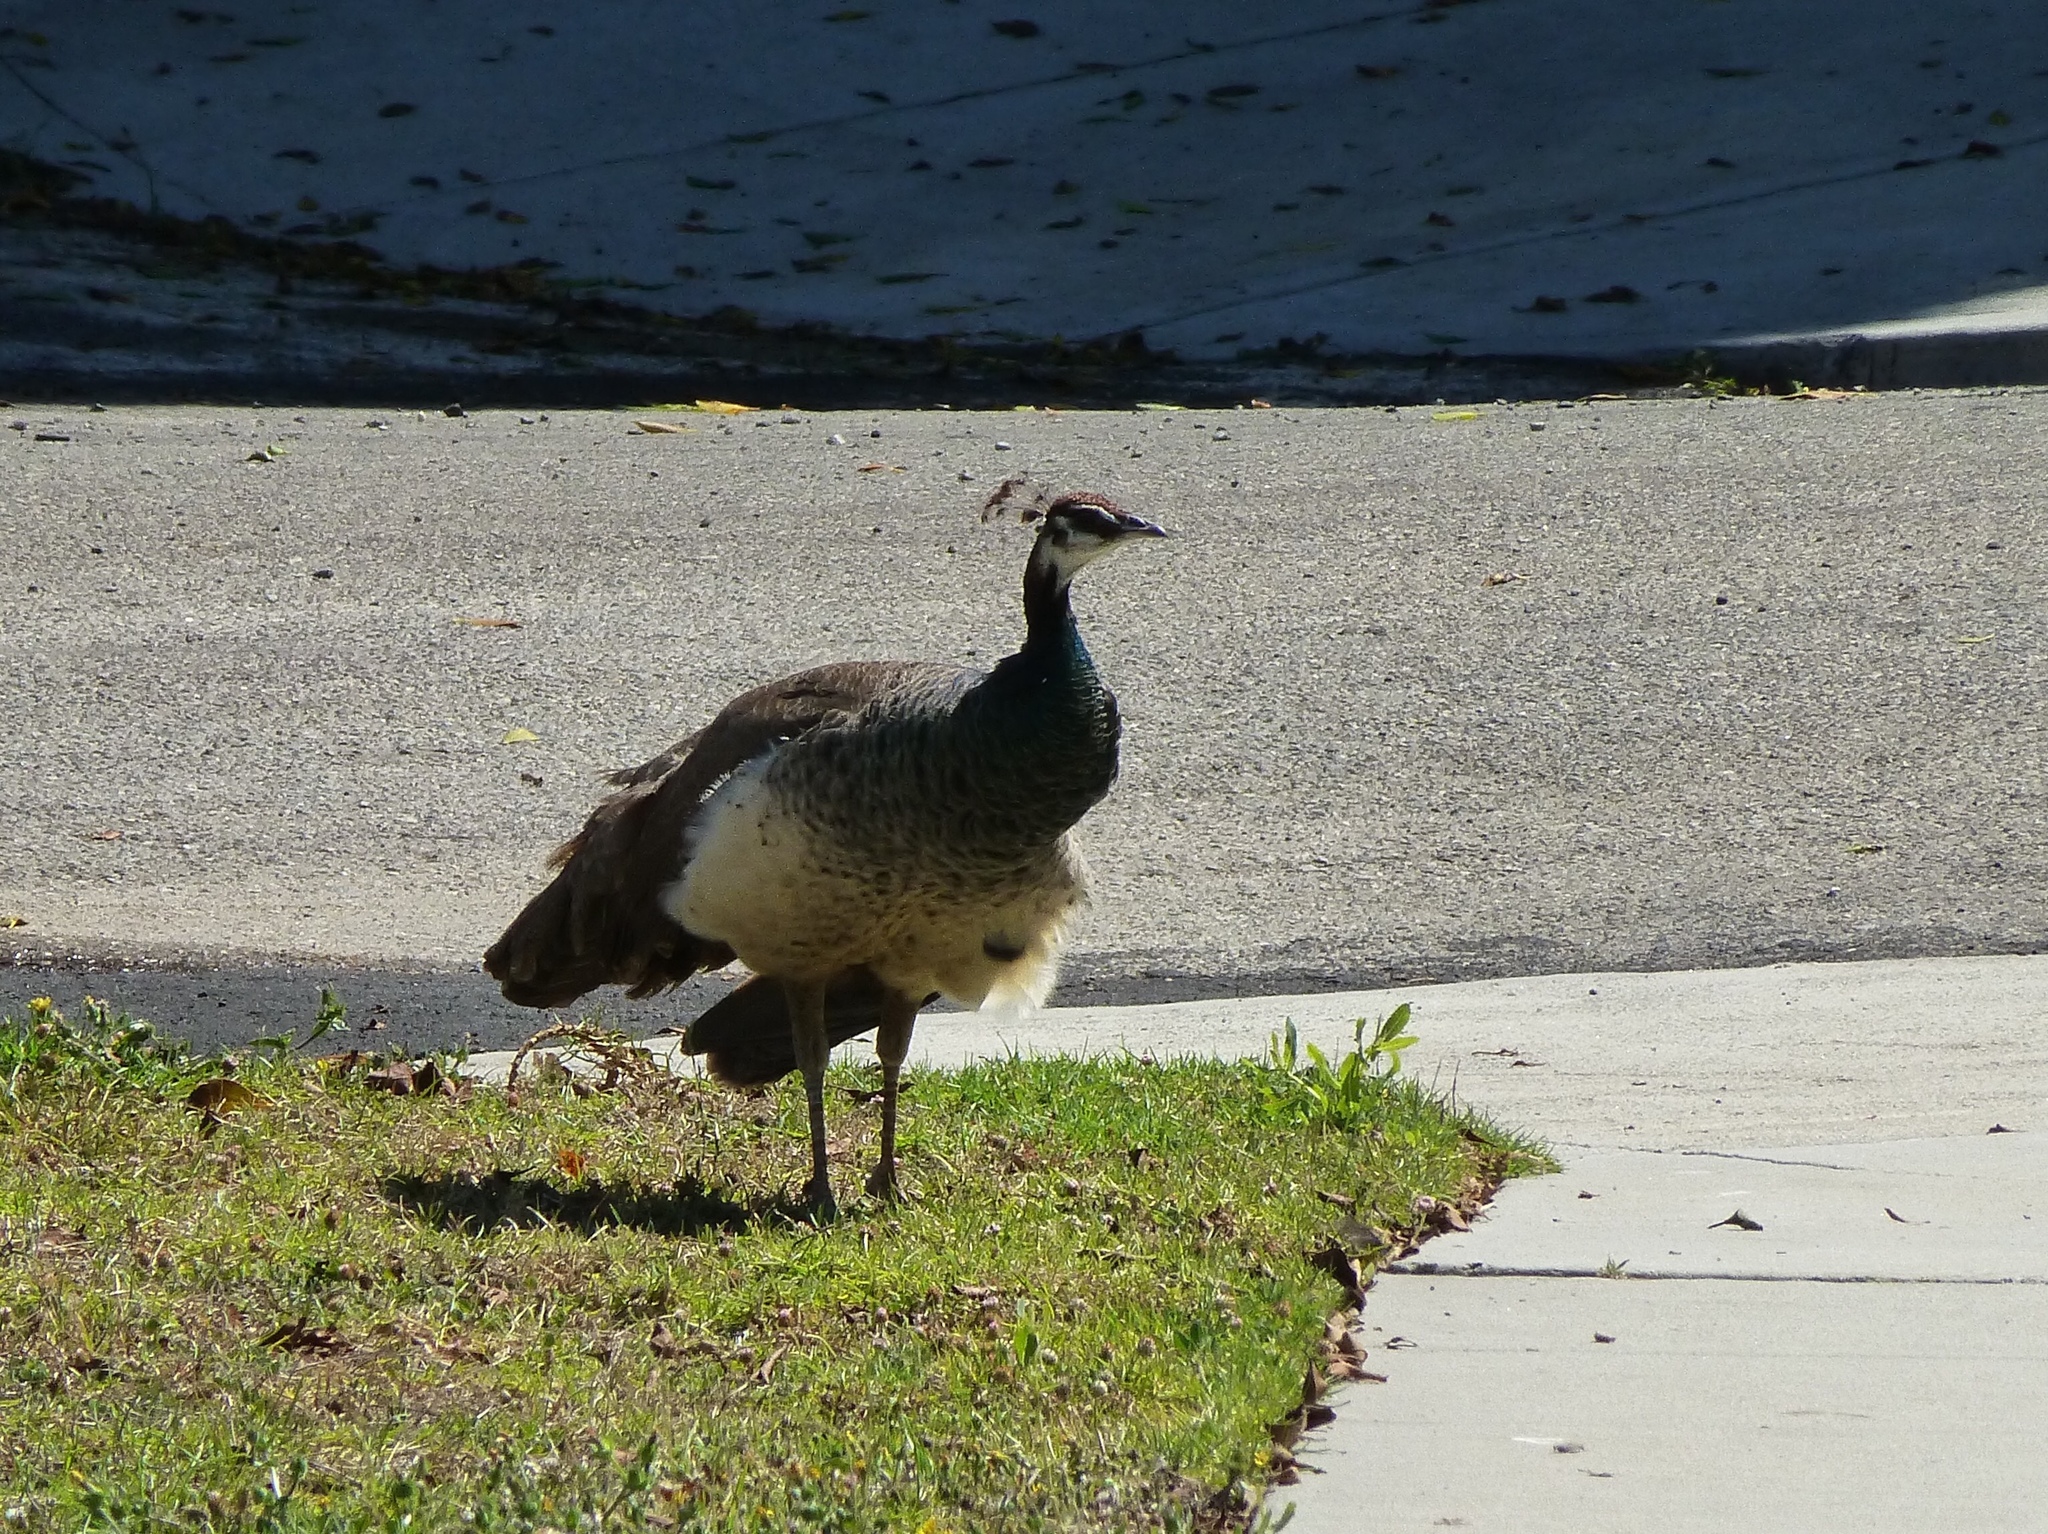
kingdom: Animalia
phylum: Chordata
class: Aves
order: Galliformes
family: Phasianidae
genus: Pavo
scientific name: Pavo cristatus
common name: Indian peafowl
